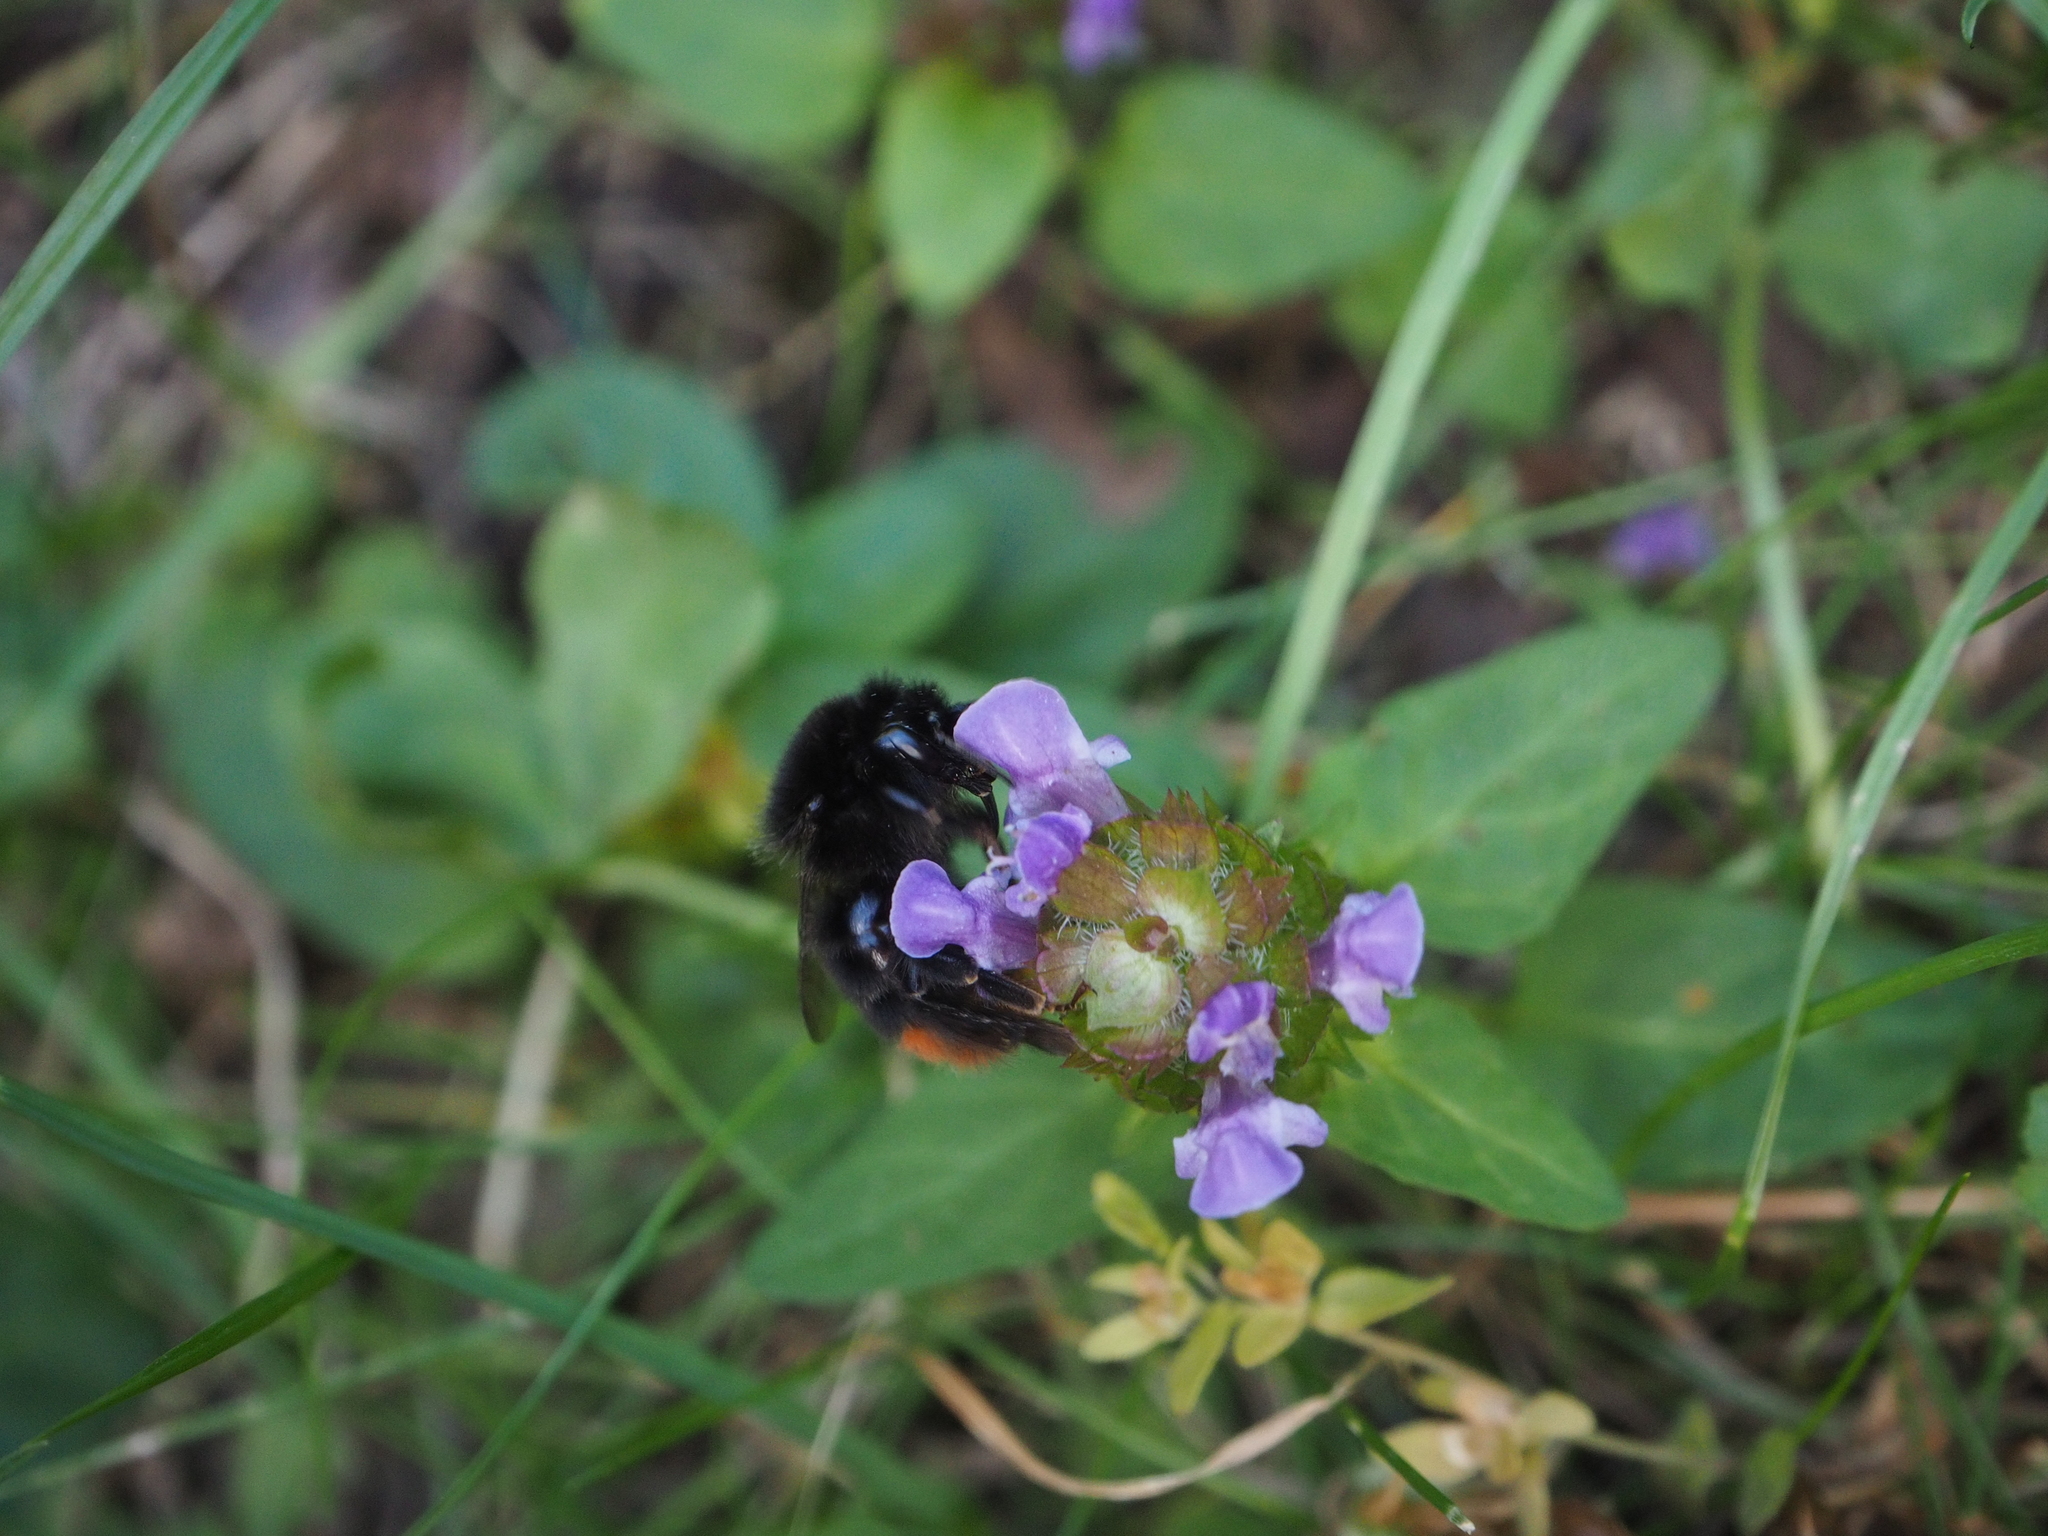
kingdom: Animalia
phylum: Arthropoda
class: Insecta
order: Hymenoptera
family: Apidae
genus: Bombus
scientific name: Bombus lapidarius
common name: Large red-tailed humble-bee
